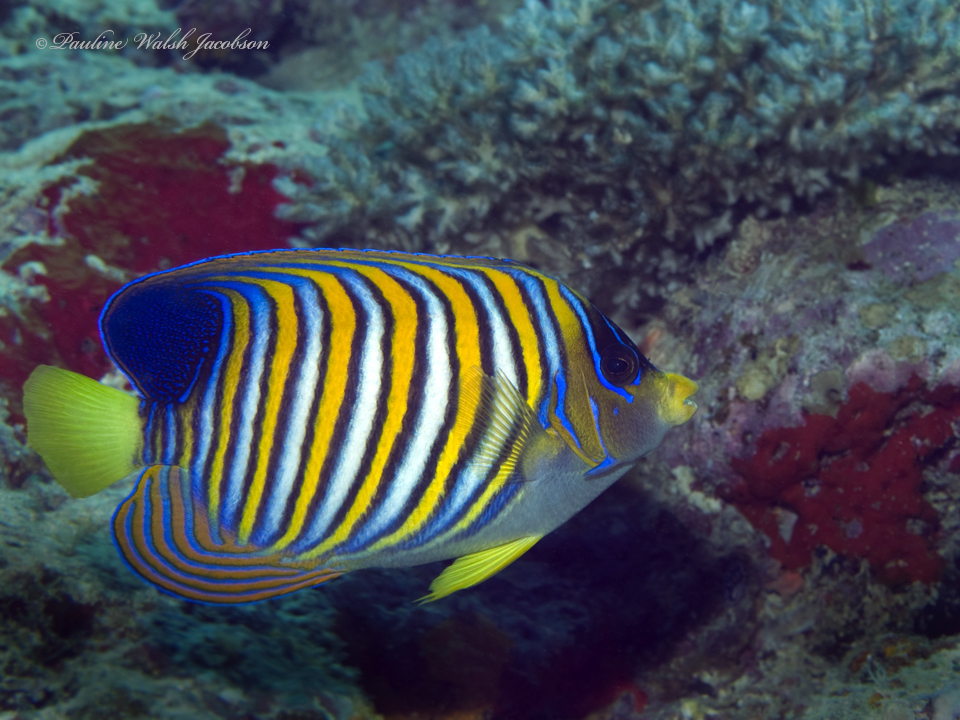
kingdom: Animalia
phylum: Chordata
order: Perciformes
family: Pomacanthidae
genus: Pygoplites
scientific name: Pygoplites diacanthus
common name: Regal angelfish
